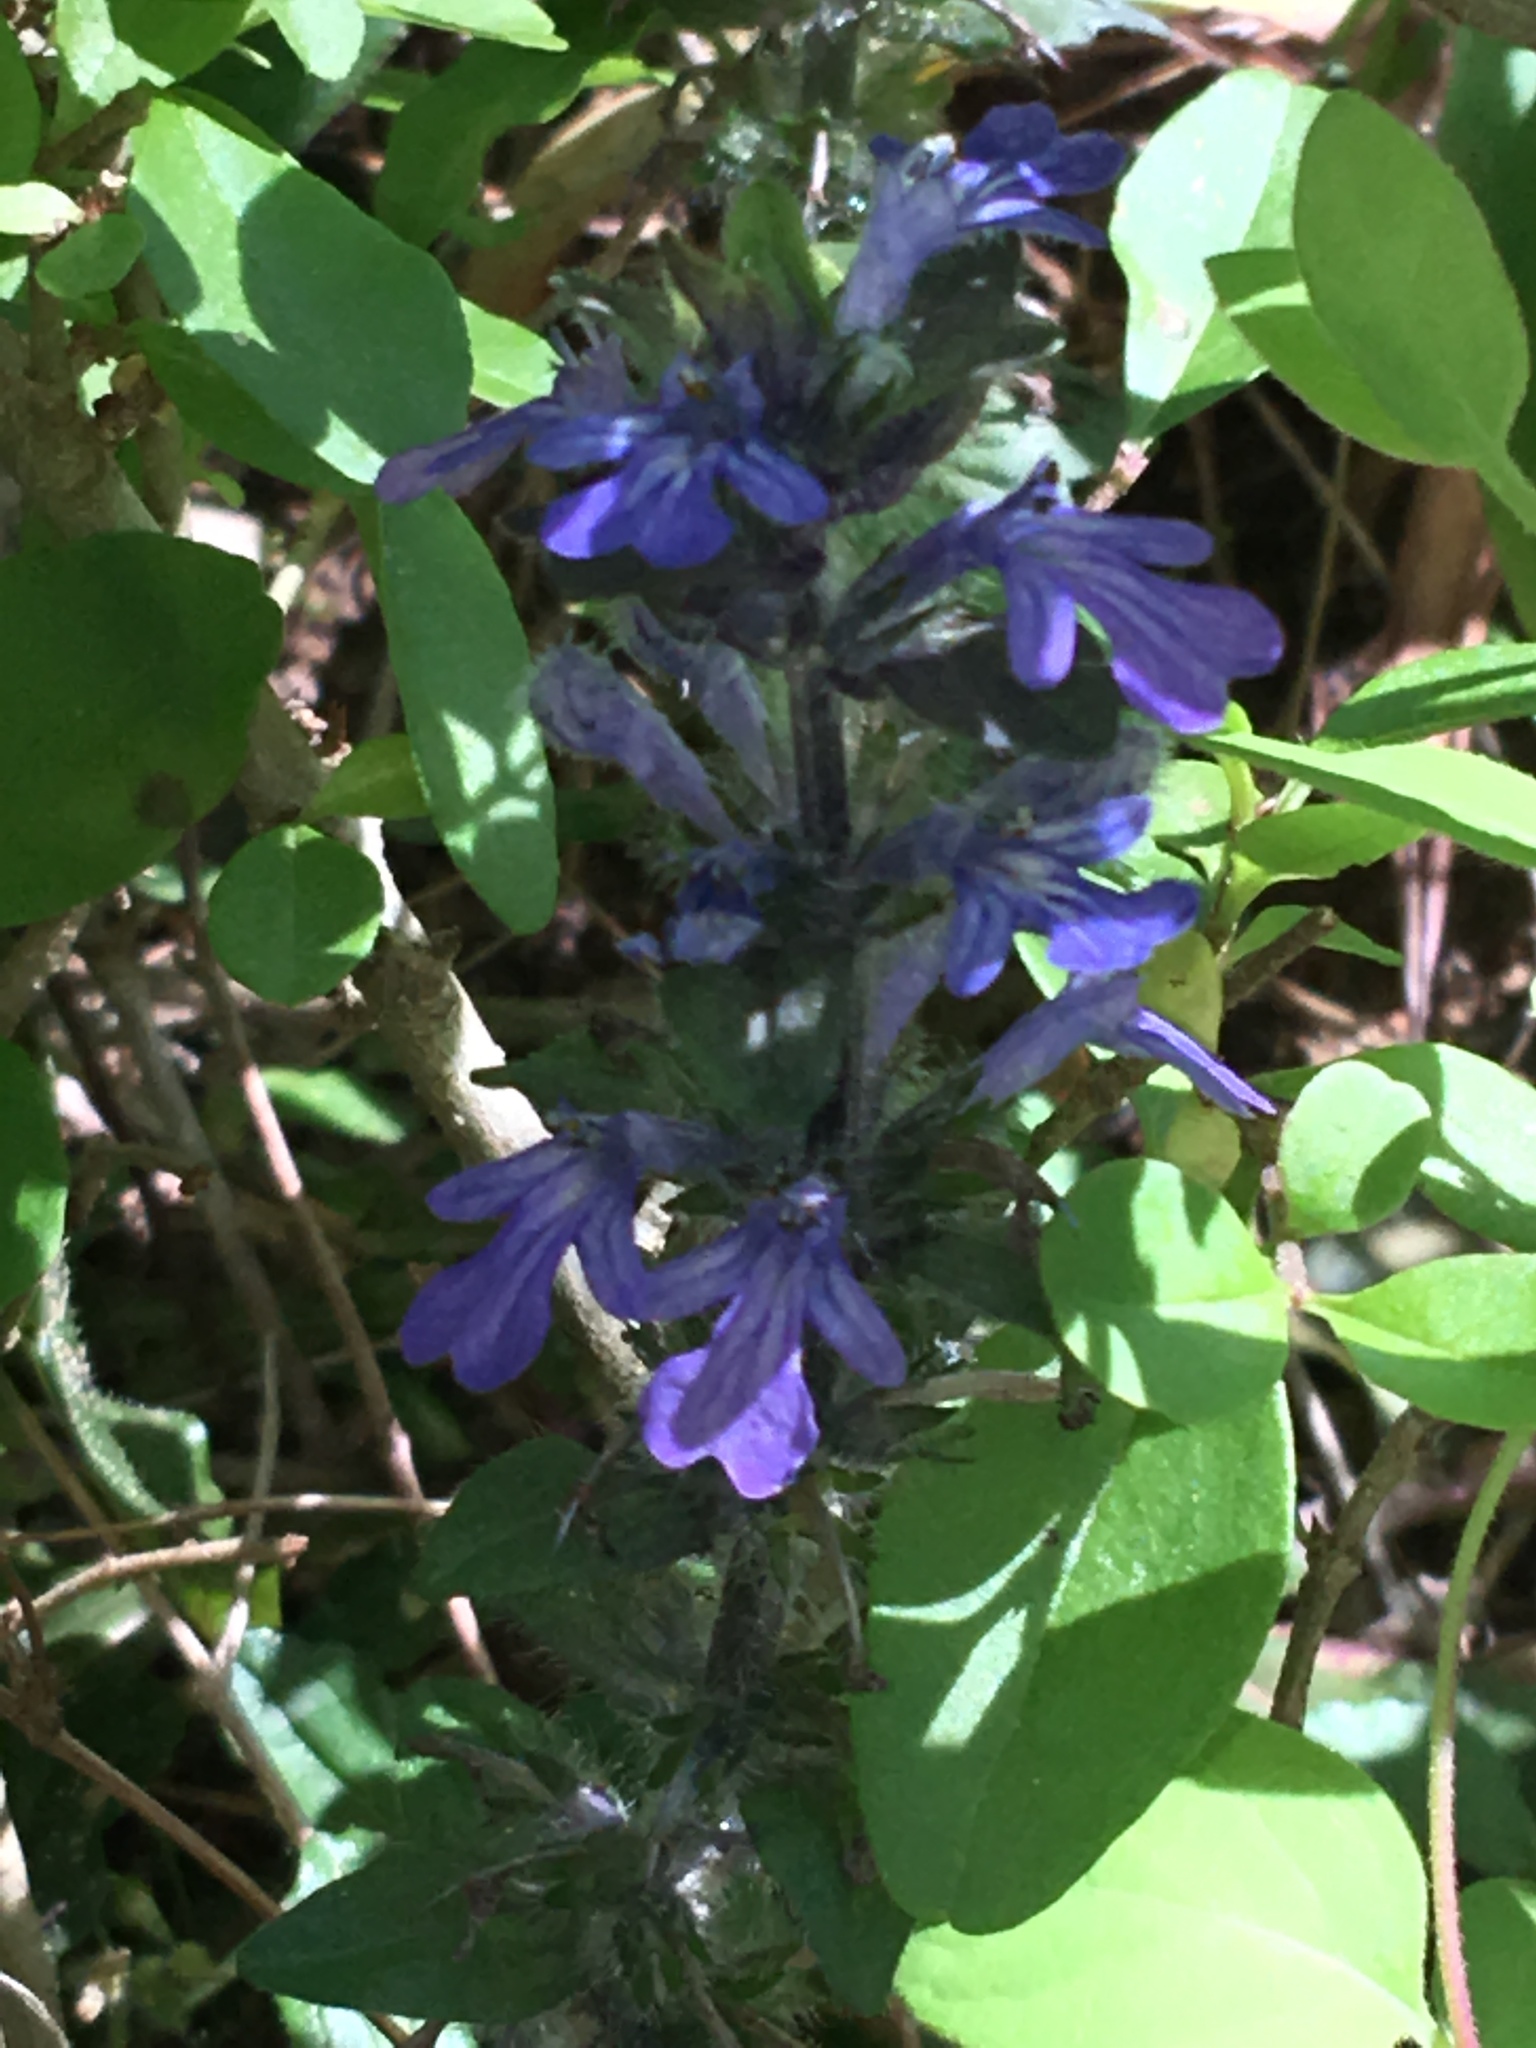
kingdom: Plantae
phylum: Tracheophyta
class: Magnoliopsida
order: Lamiales
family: Lamiaceae
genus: Ajuga
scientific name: Ajuga reptans
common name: Bugle
